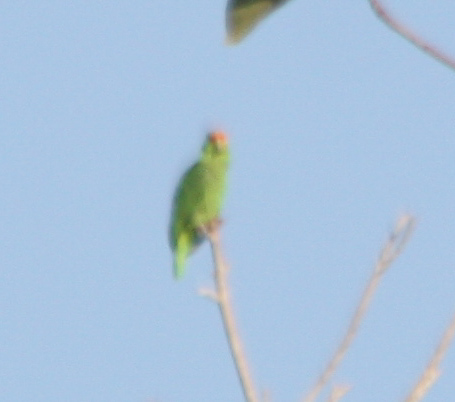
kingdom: Animalia
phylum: Chordata
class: Aves
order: Psittaciformes
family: Psittacidae
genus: Amazona
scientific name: Amazona autumnalis
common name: Red-lored amazon
